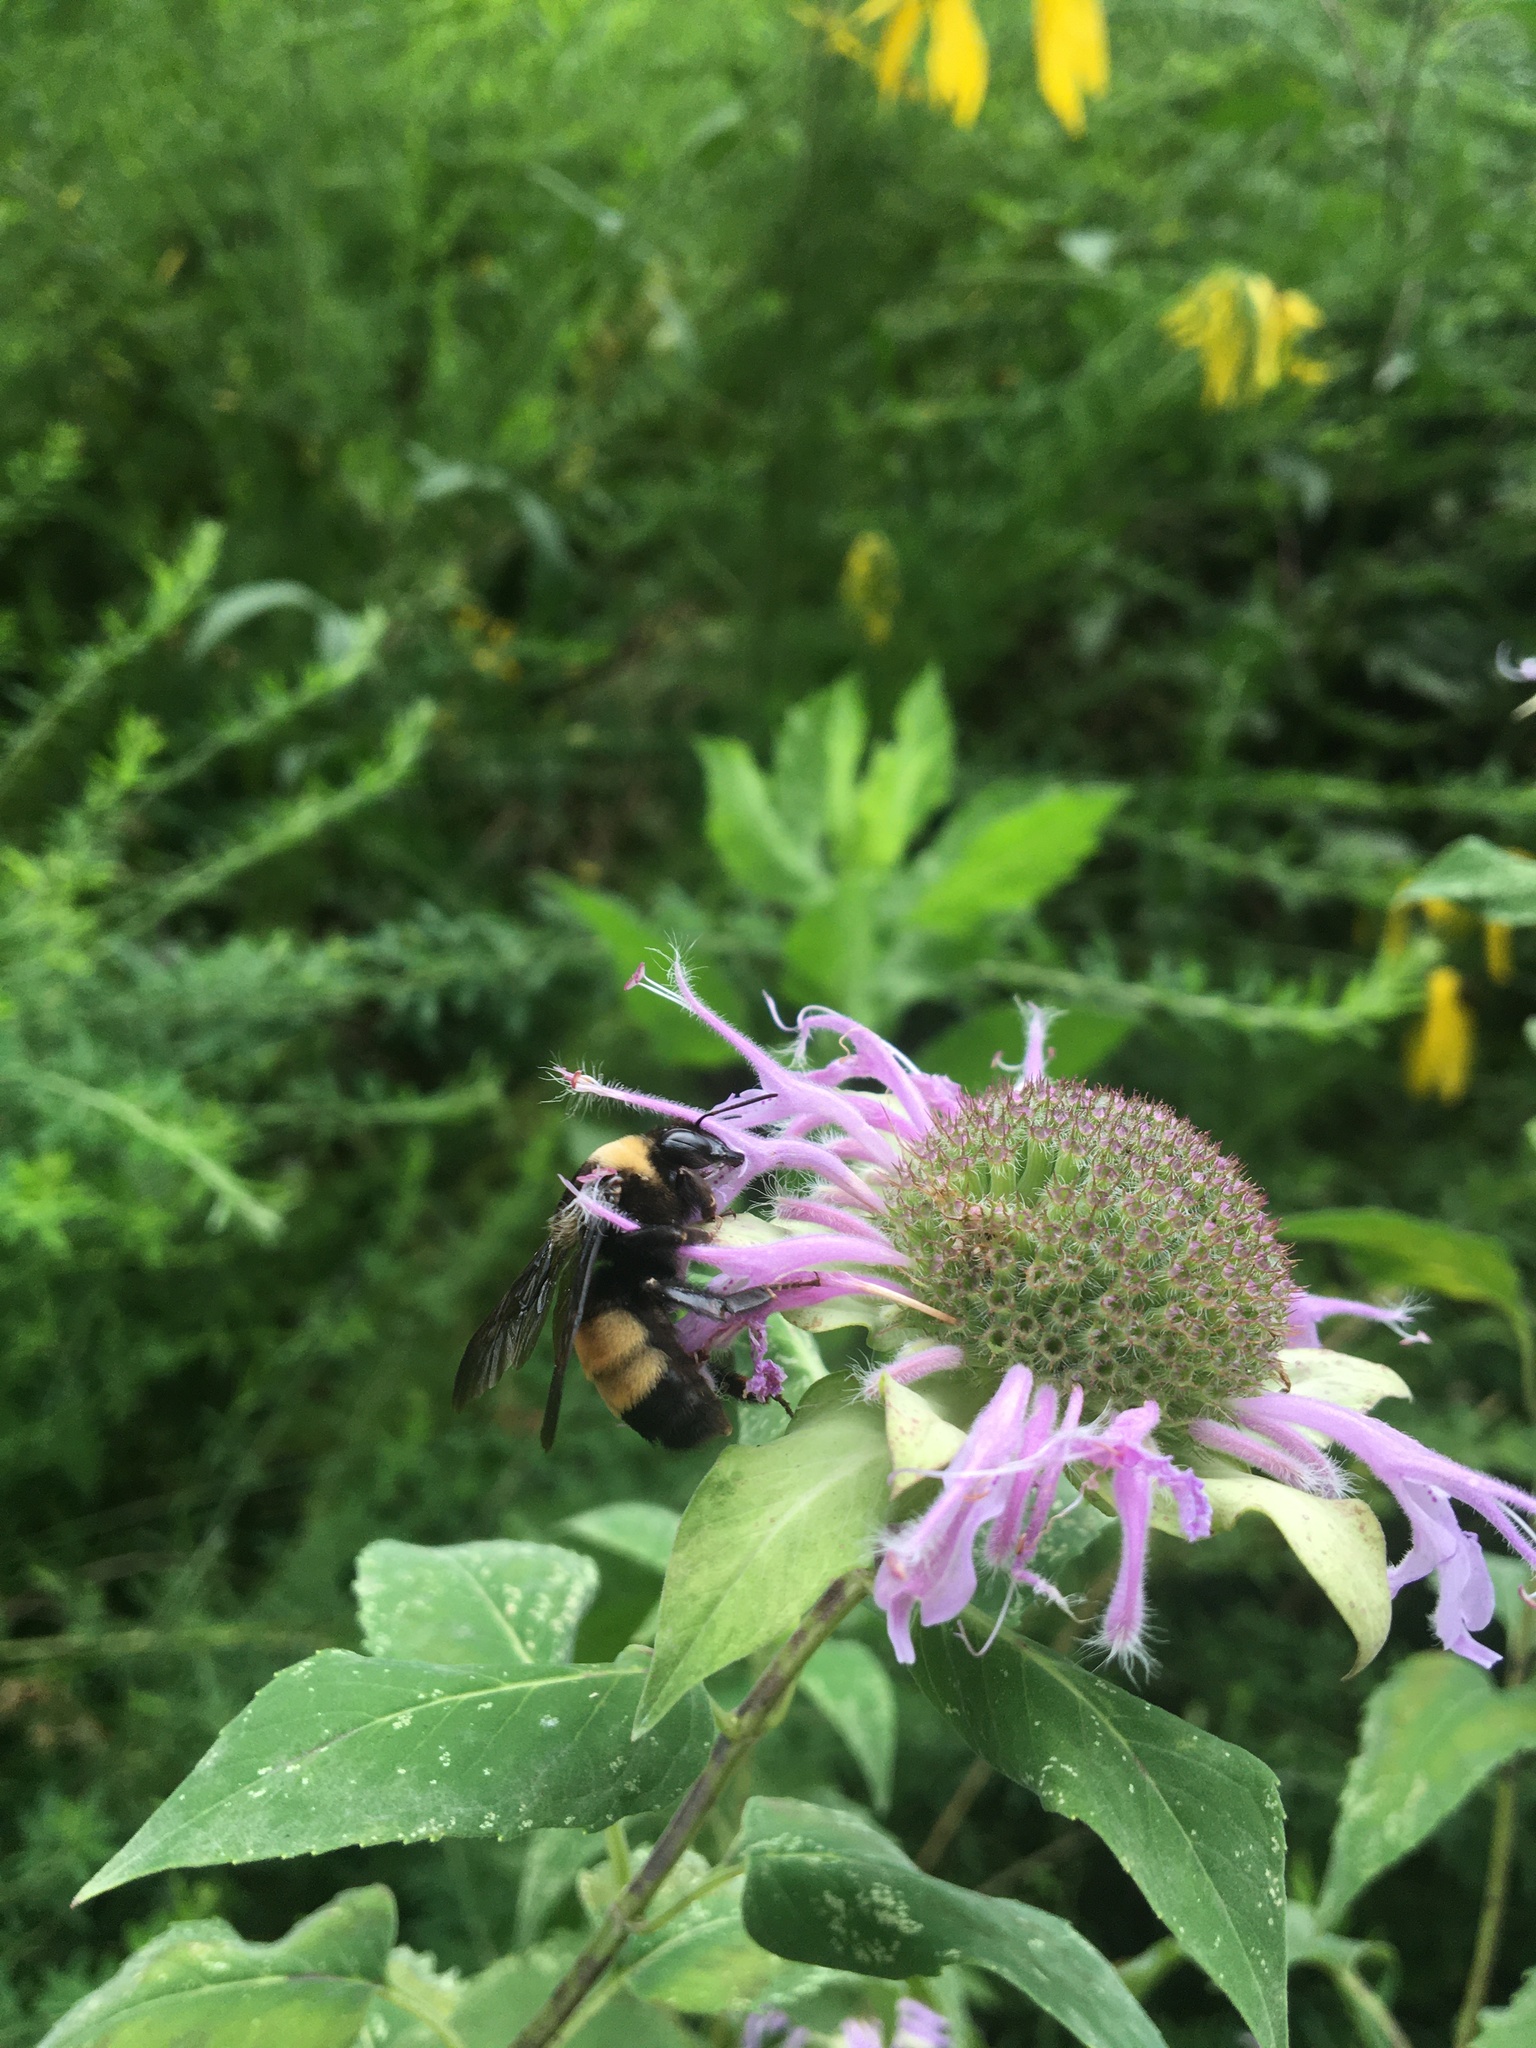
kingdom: Animalia
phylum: Arthropoda
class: Insecta
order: Hymenoptera
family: Apidae
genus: Bombus
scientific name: Bombus auricomus
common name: Black and gold bumble bee
